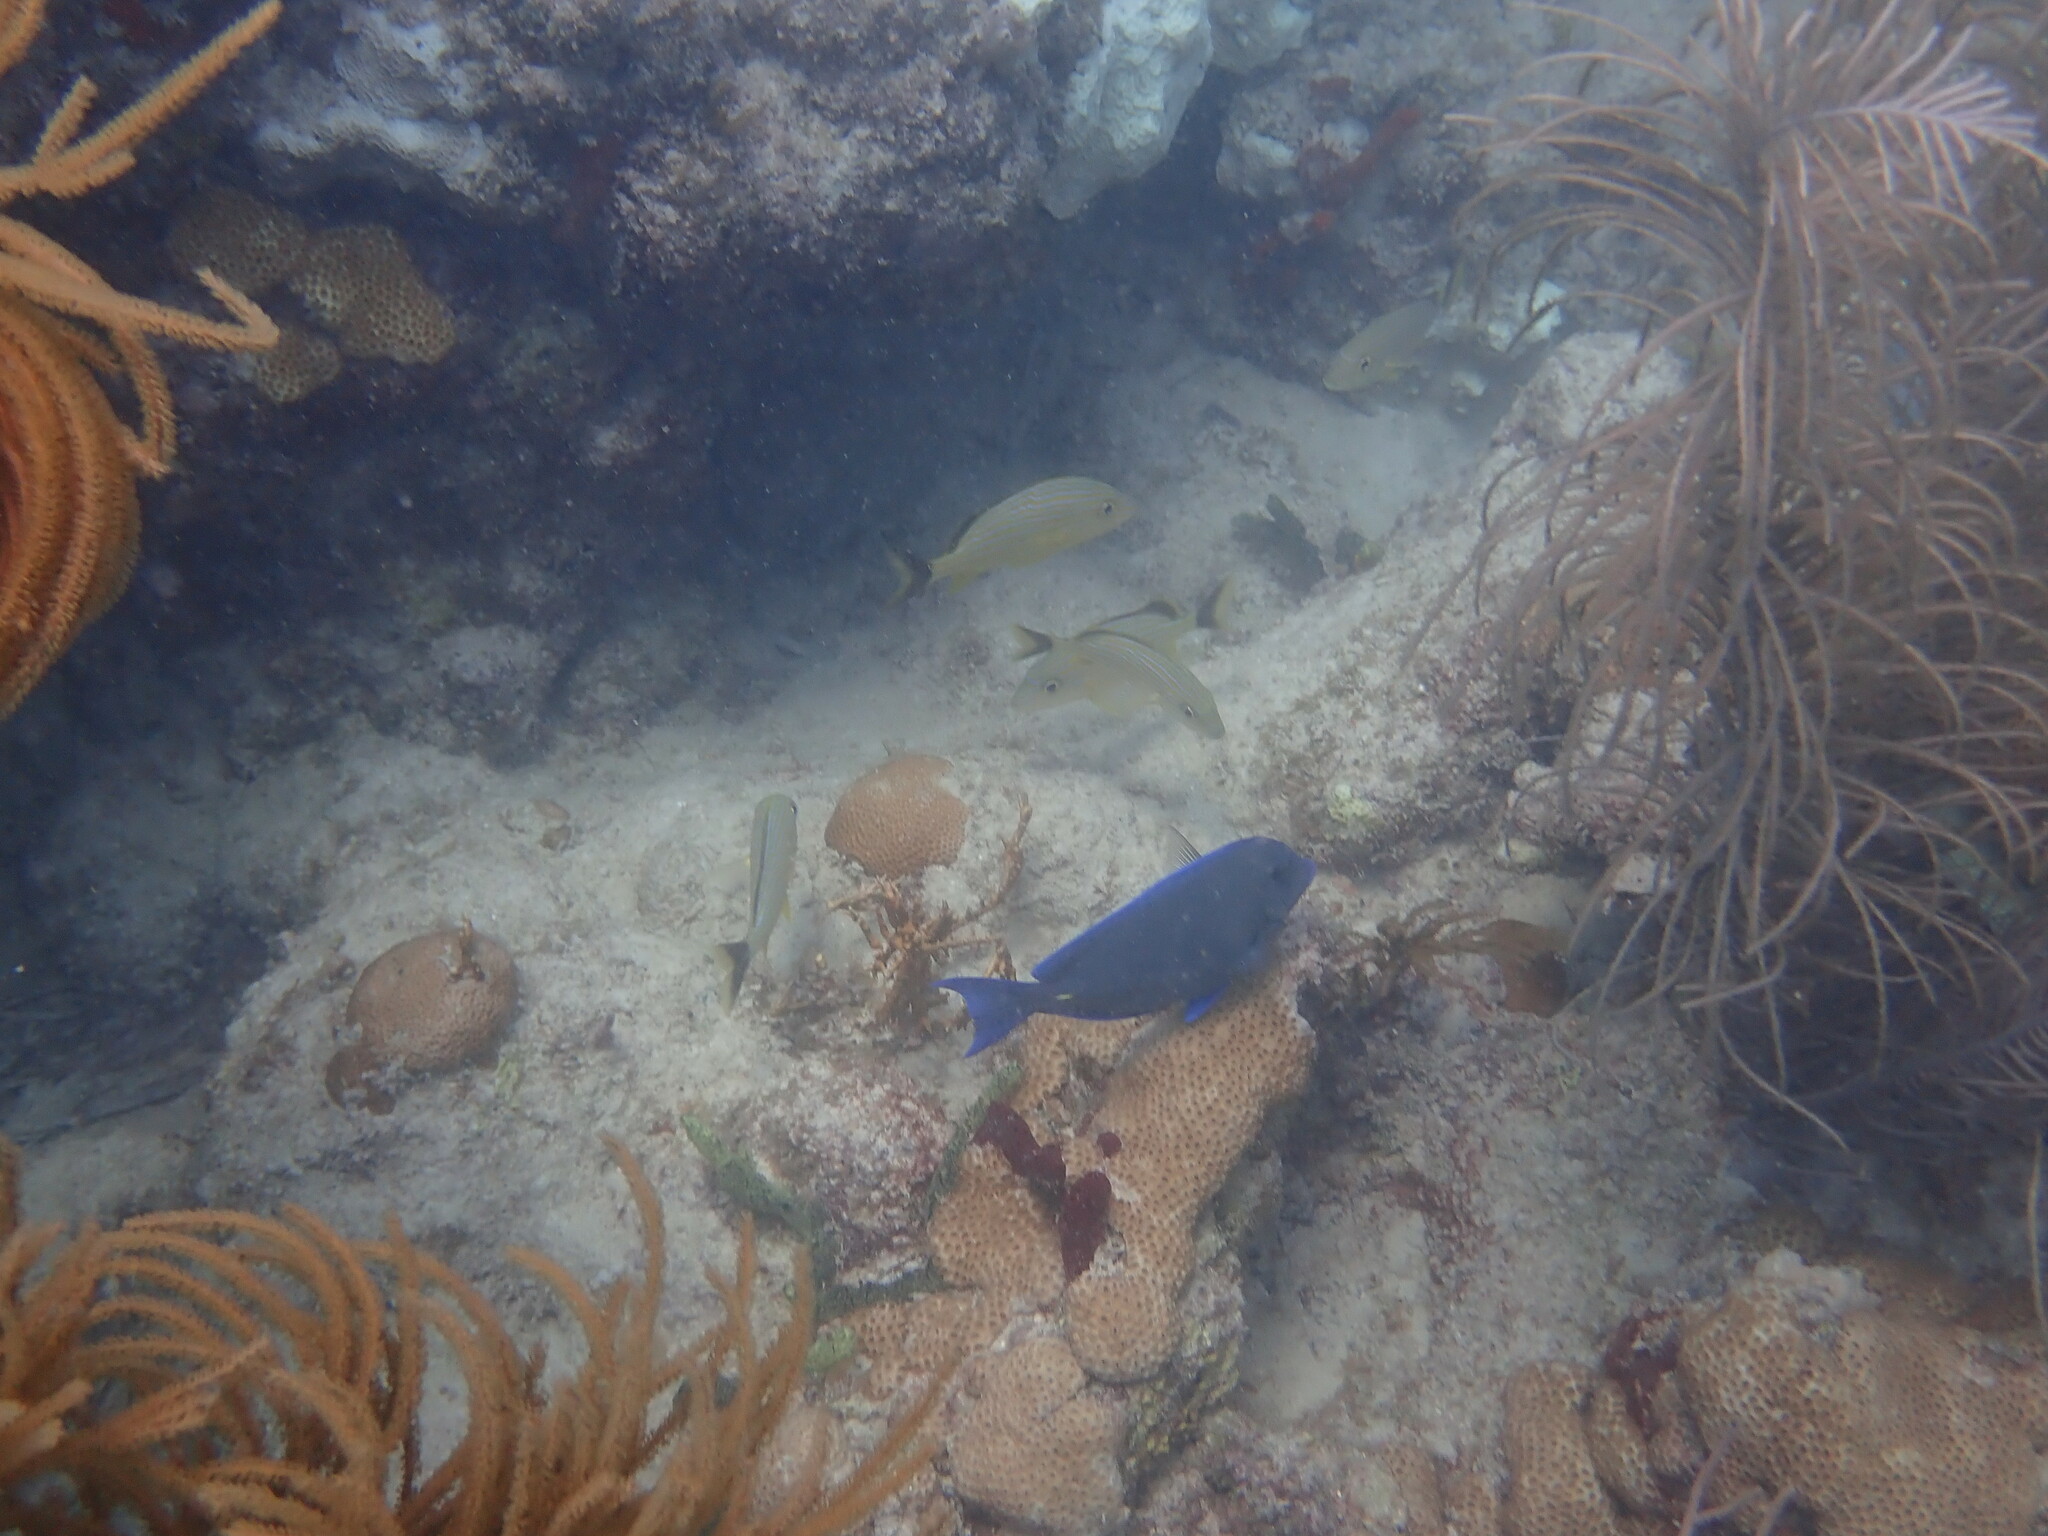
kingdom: Animalia
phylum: Chordata
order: Perciformes
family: Acanthuridae
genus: Acanthurus
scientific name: Acanthurus coeruleus
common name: Blue tang
